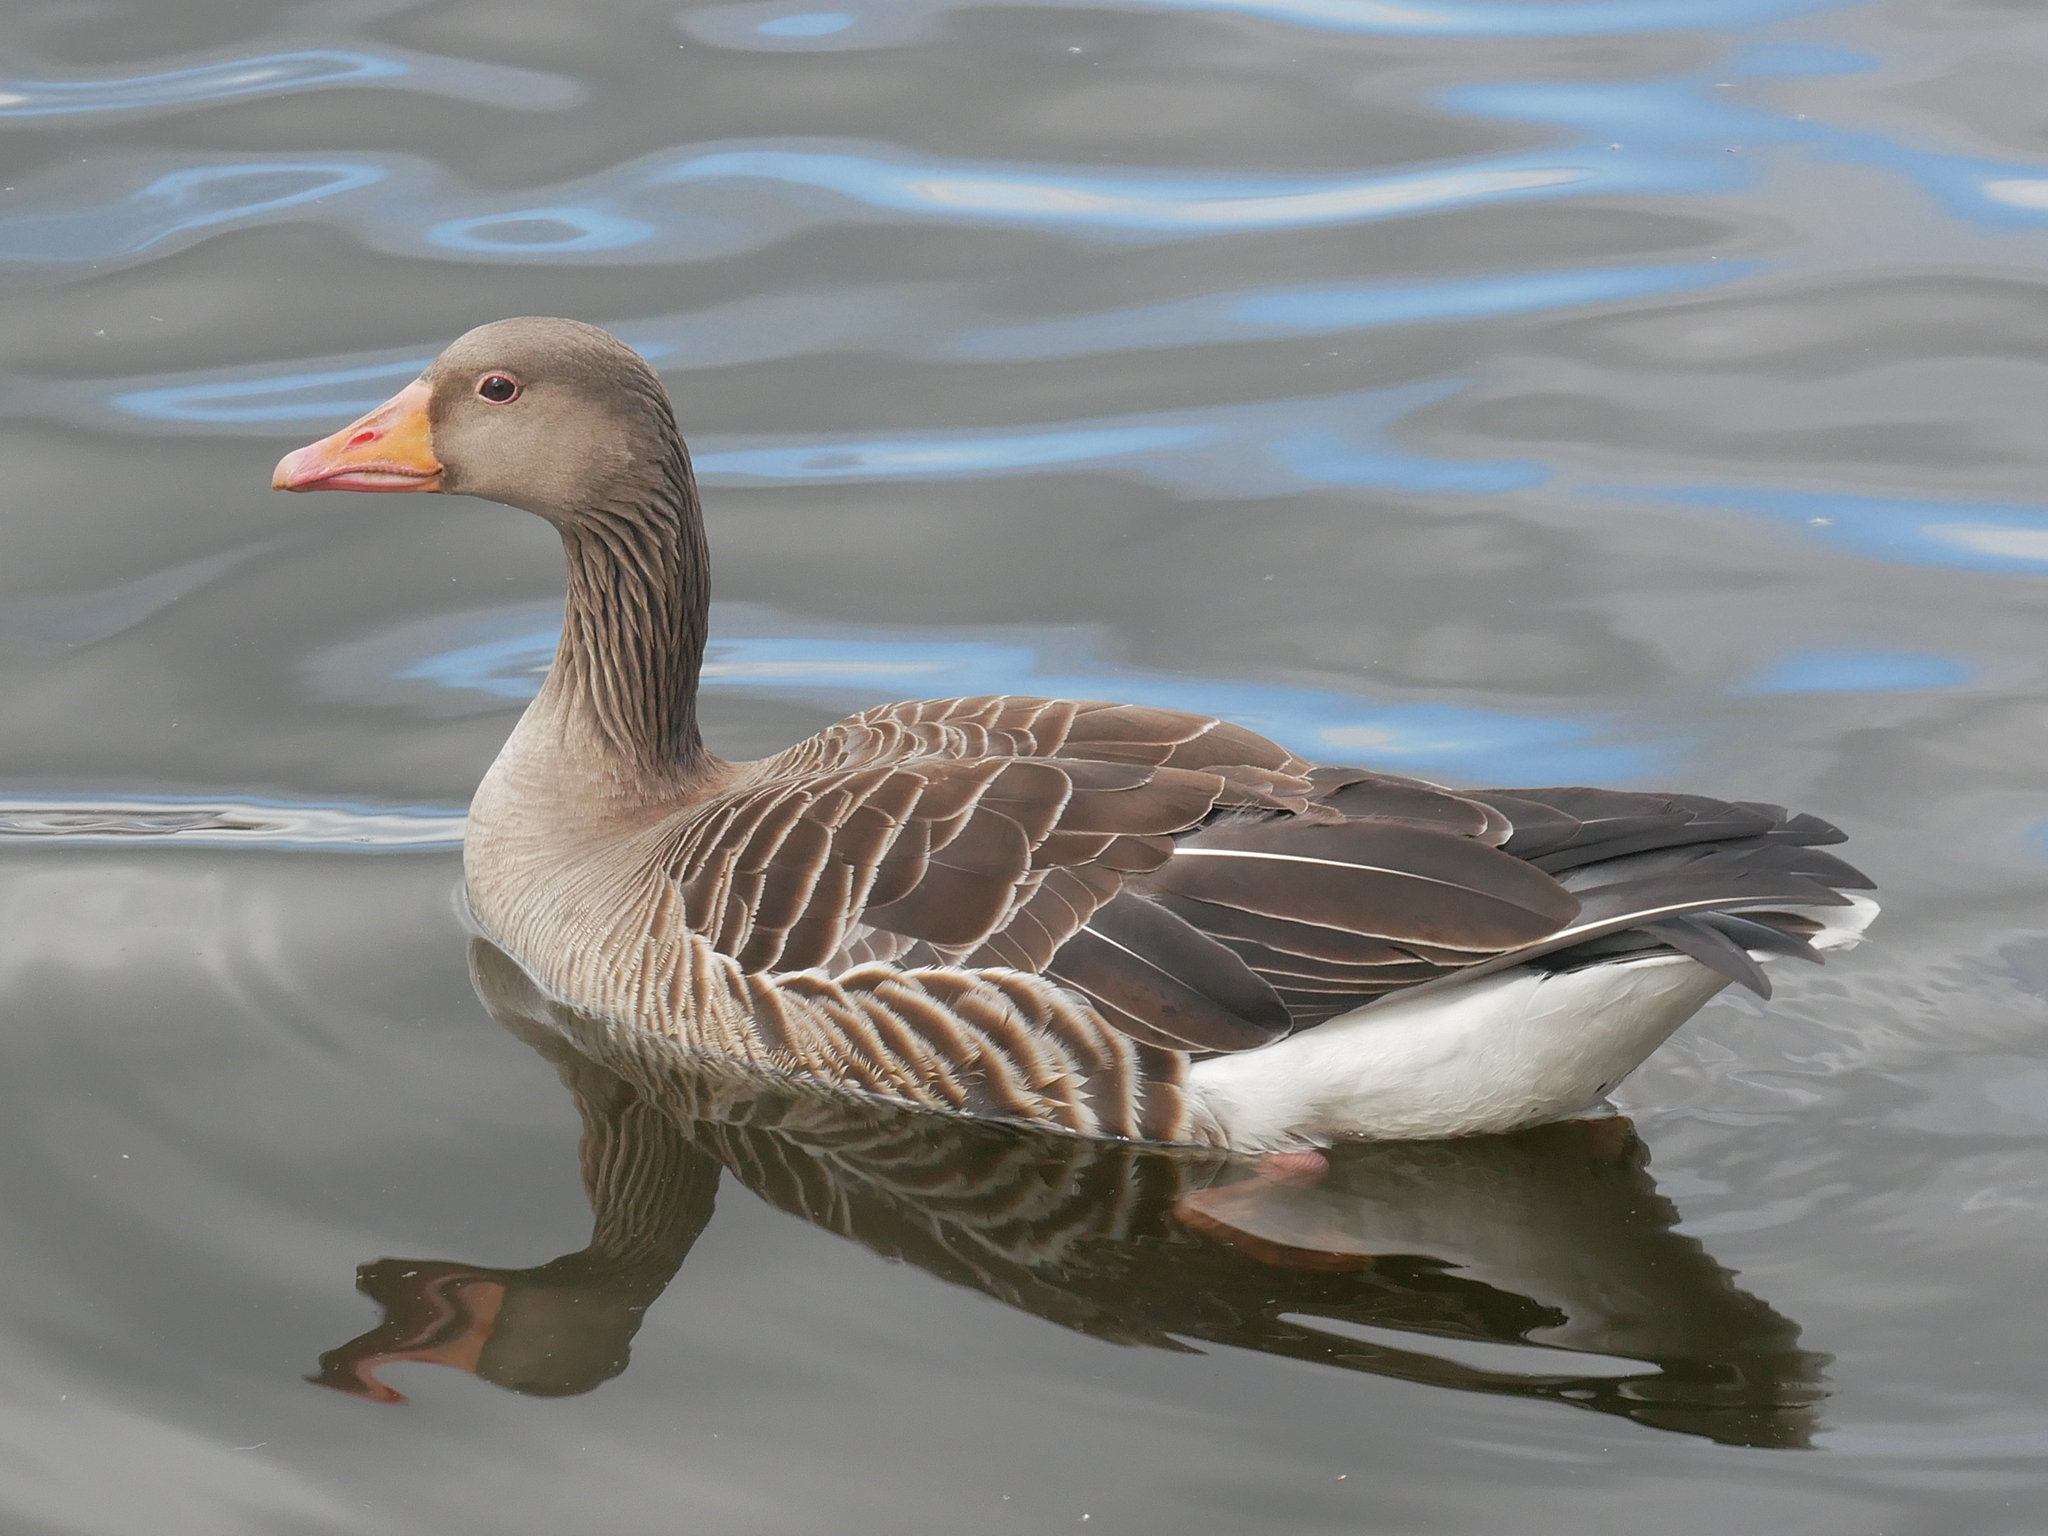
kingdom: Animalia
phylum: Chordata
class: Aves
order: Anseriformes
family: Anatidae
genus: Anser
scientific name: Anser anser
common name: Greylag goose
